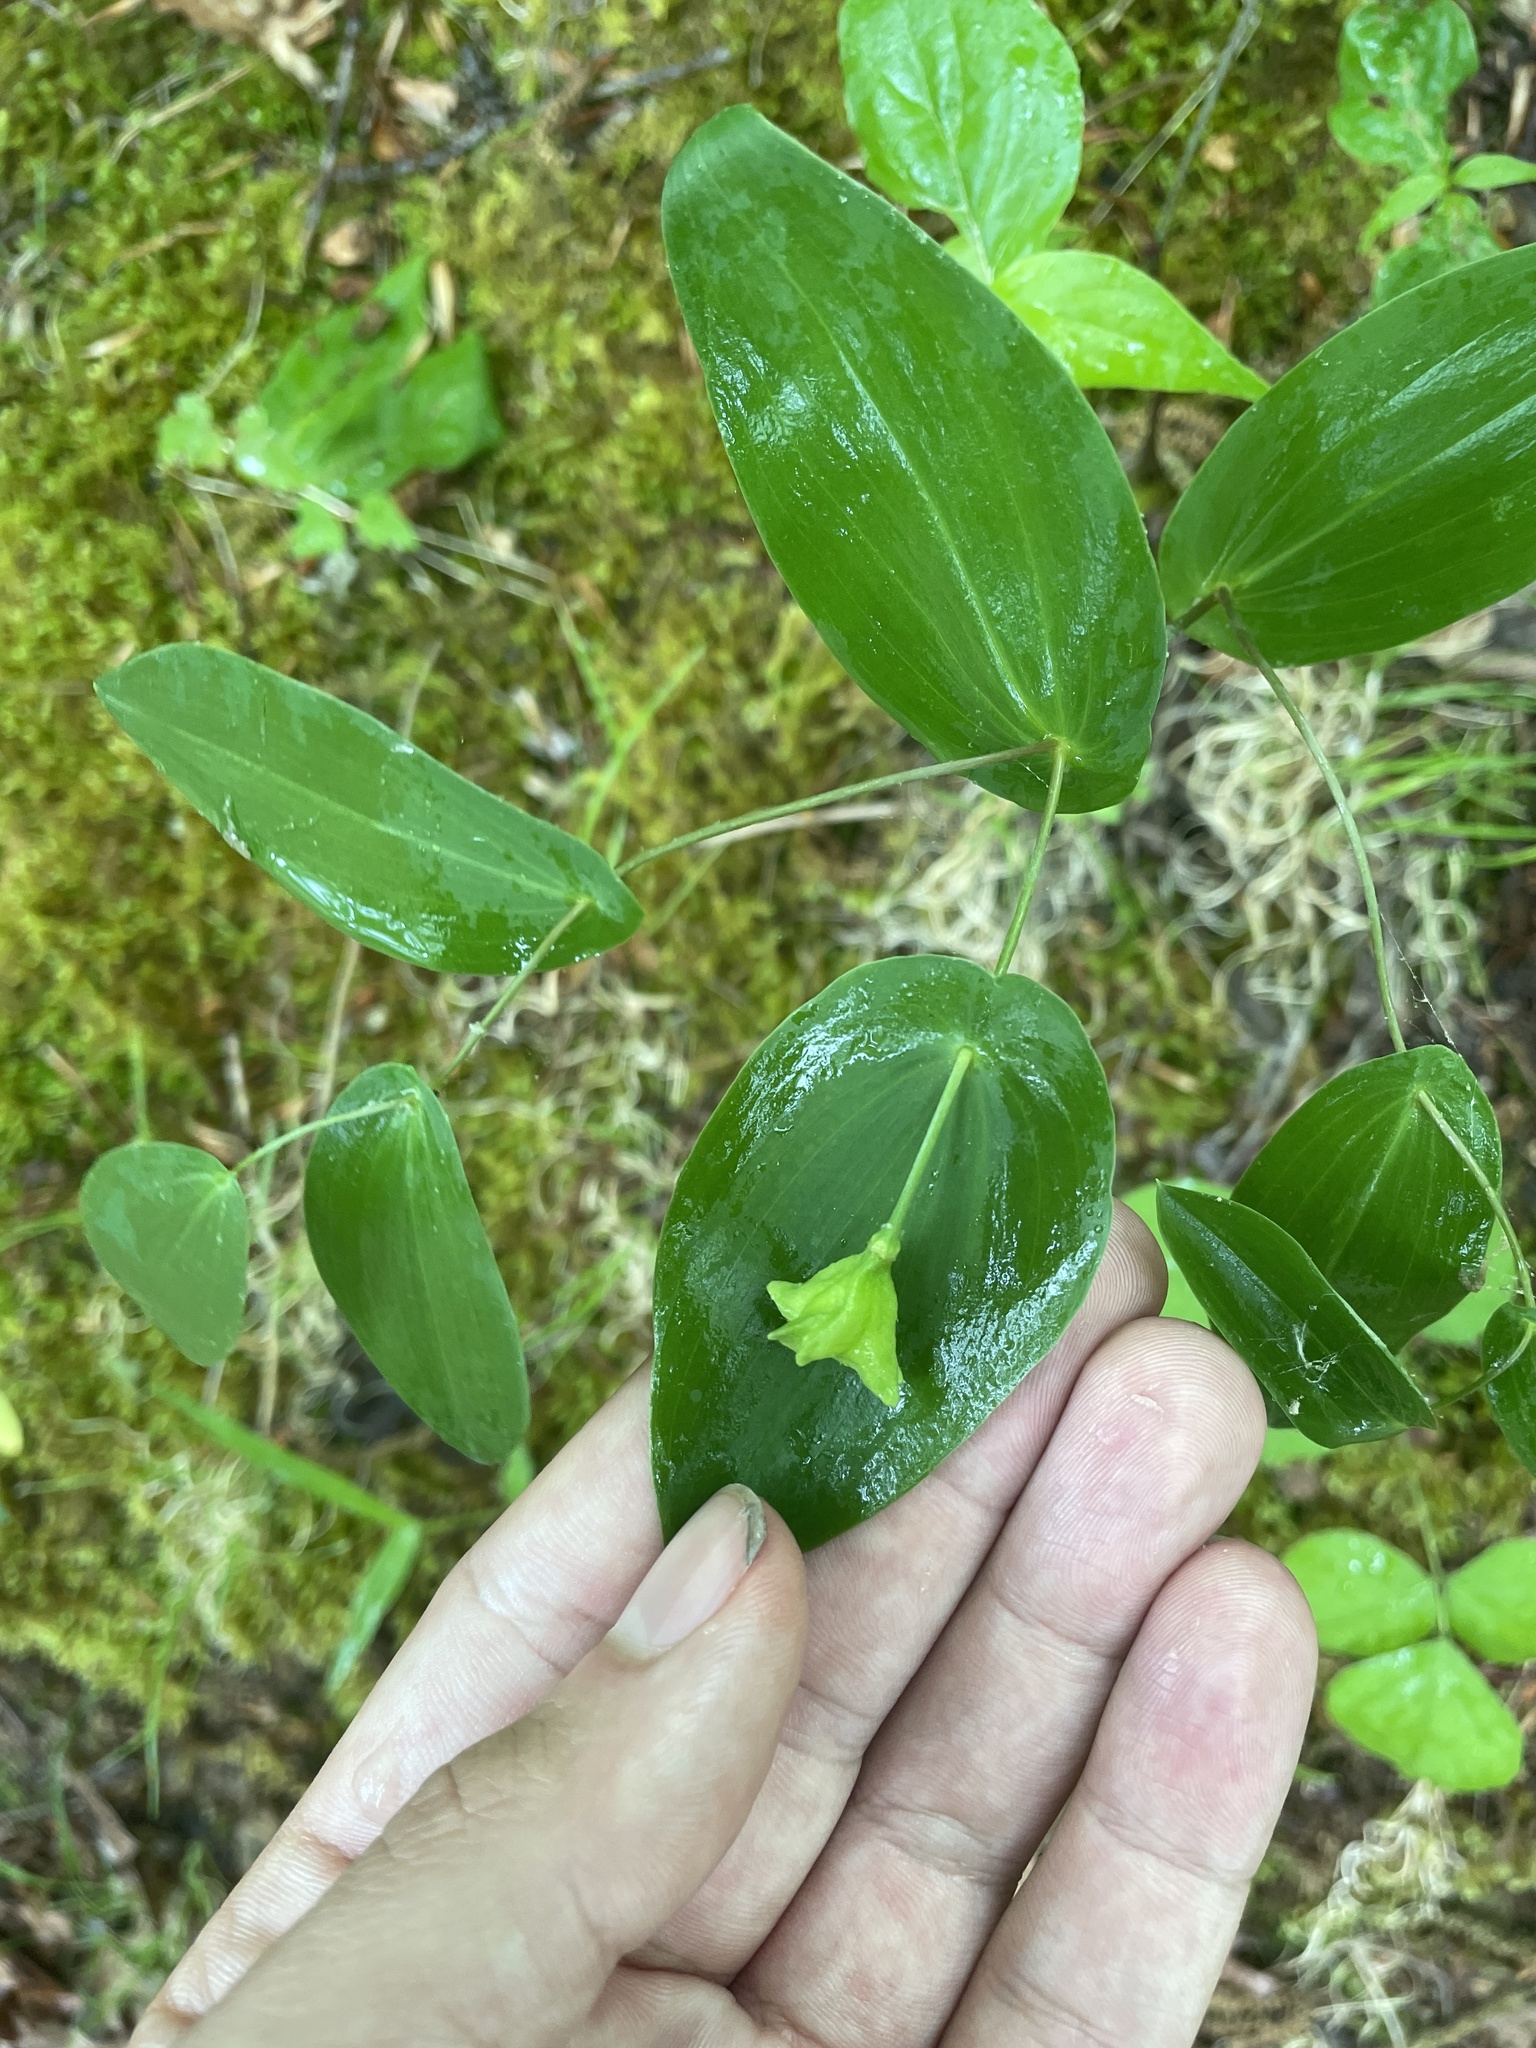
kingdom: Plantae
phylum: Tracheophyta
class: Liliopsida
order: Liliales
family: Colchicaceae
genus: Uvularia
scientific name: Uvularia perfoliata
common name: Perfoliate bellwort
